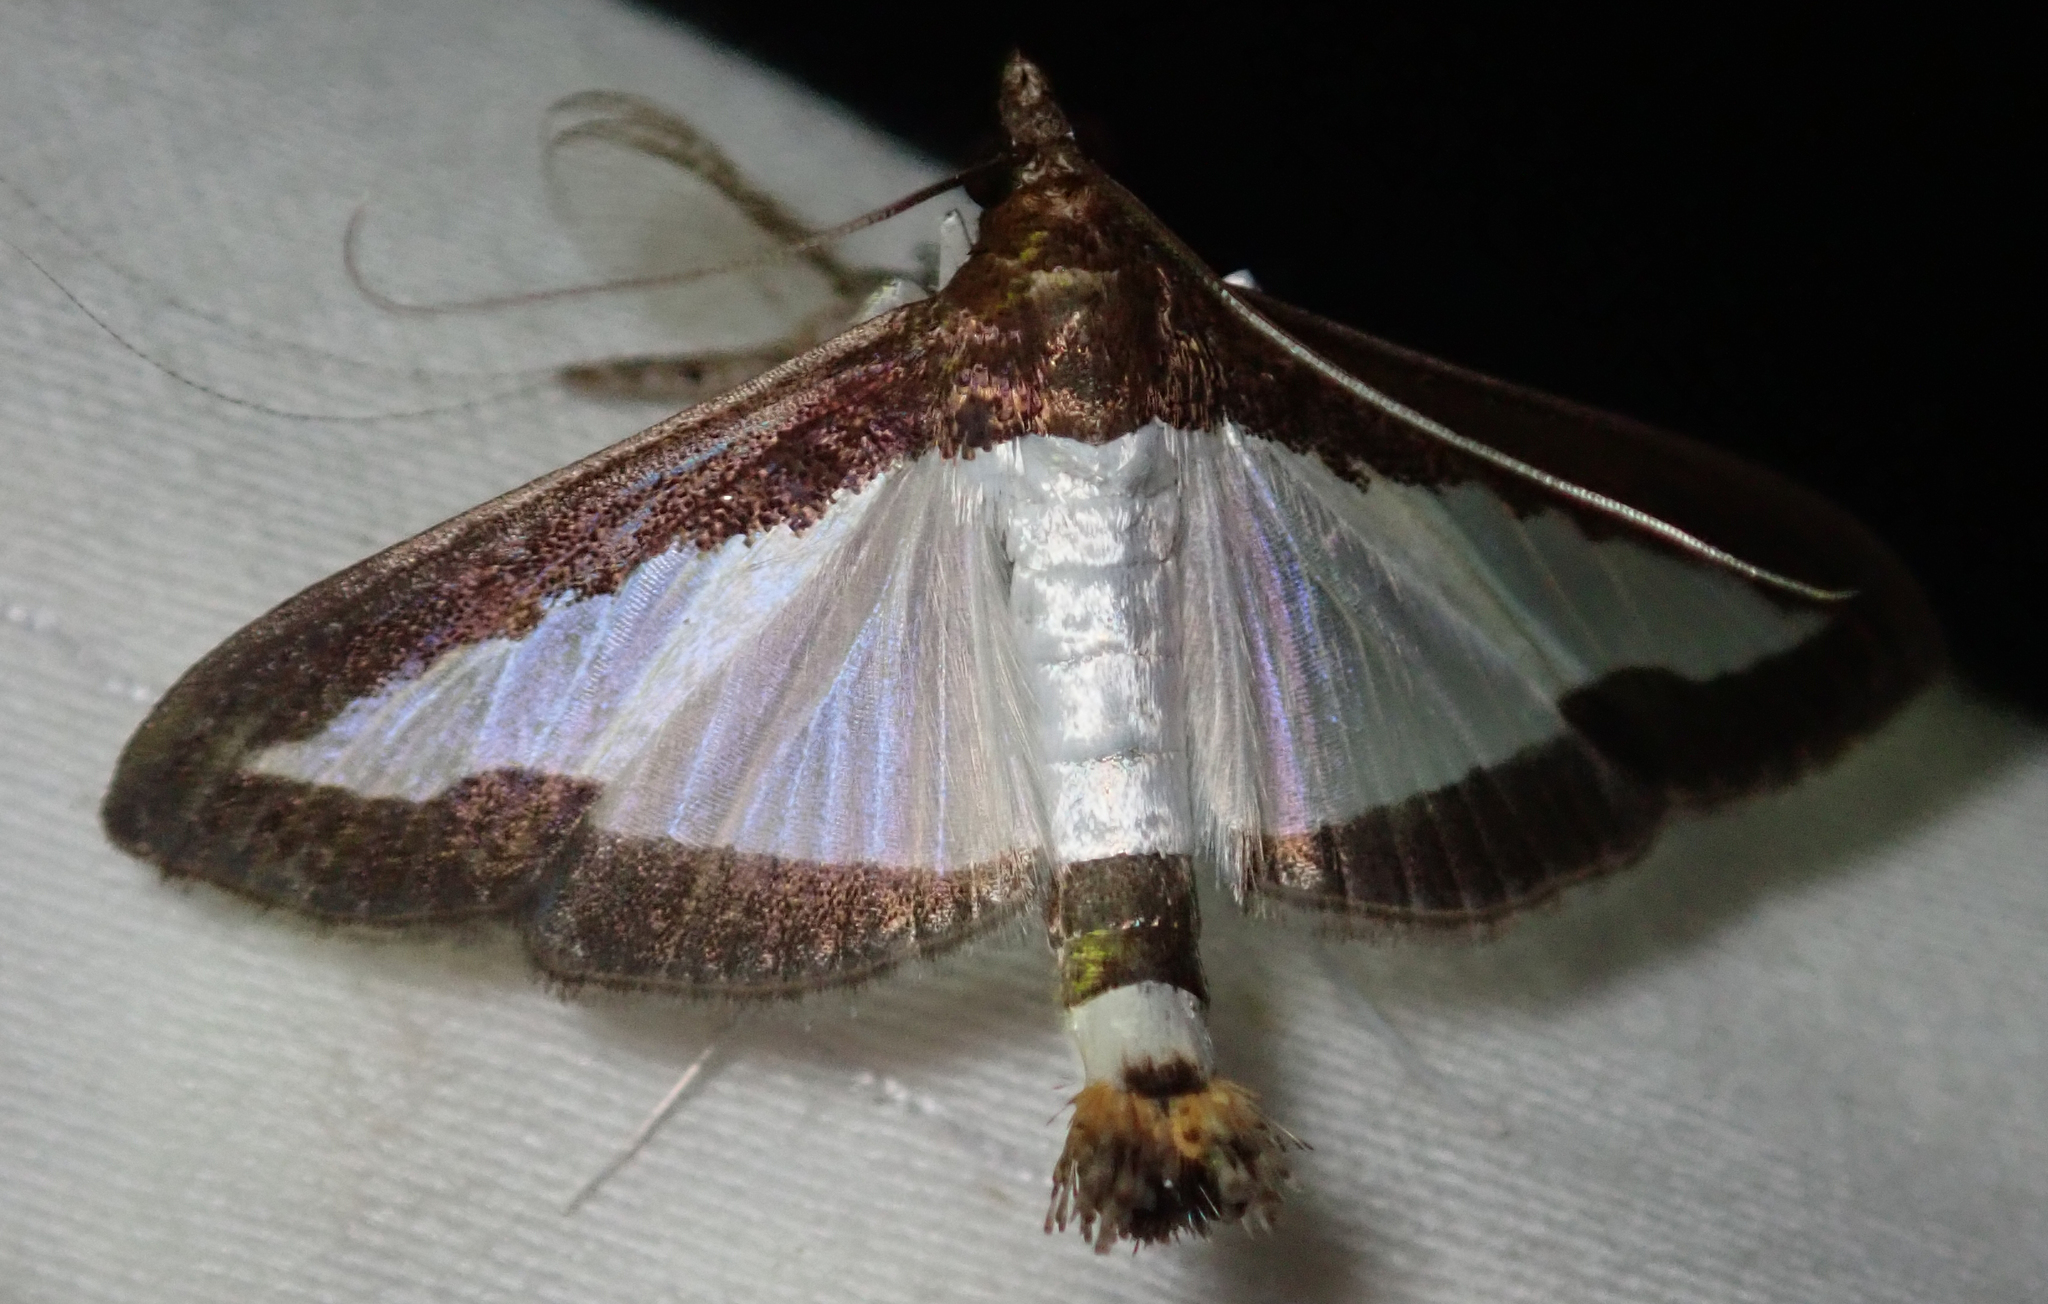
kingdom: Animalia
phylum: Arthropoda
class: Insecta
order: Lepidoptera
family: Crambidae
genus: Diaphania
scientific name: Diaphania indica
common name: Cucumber moth
